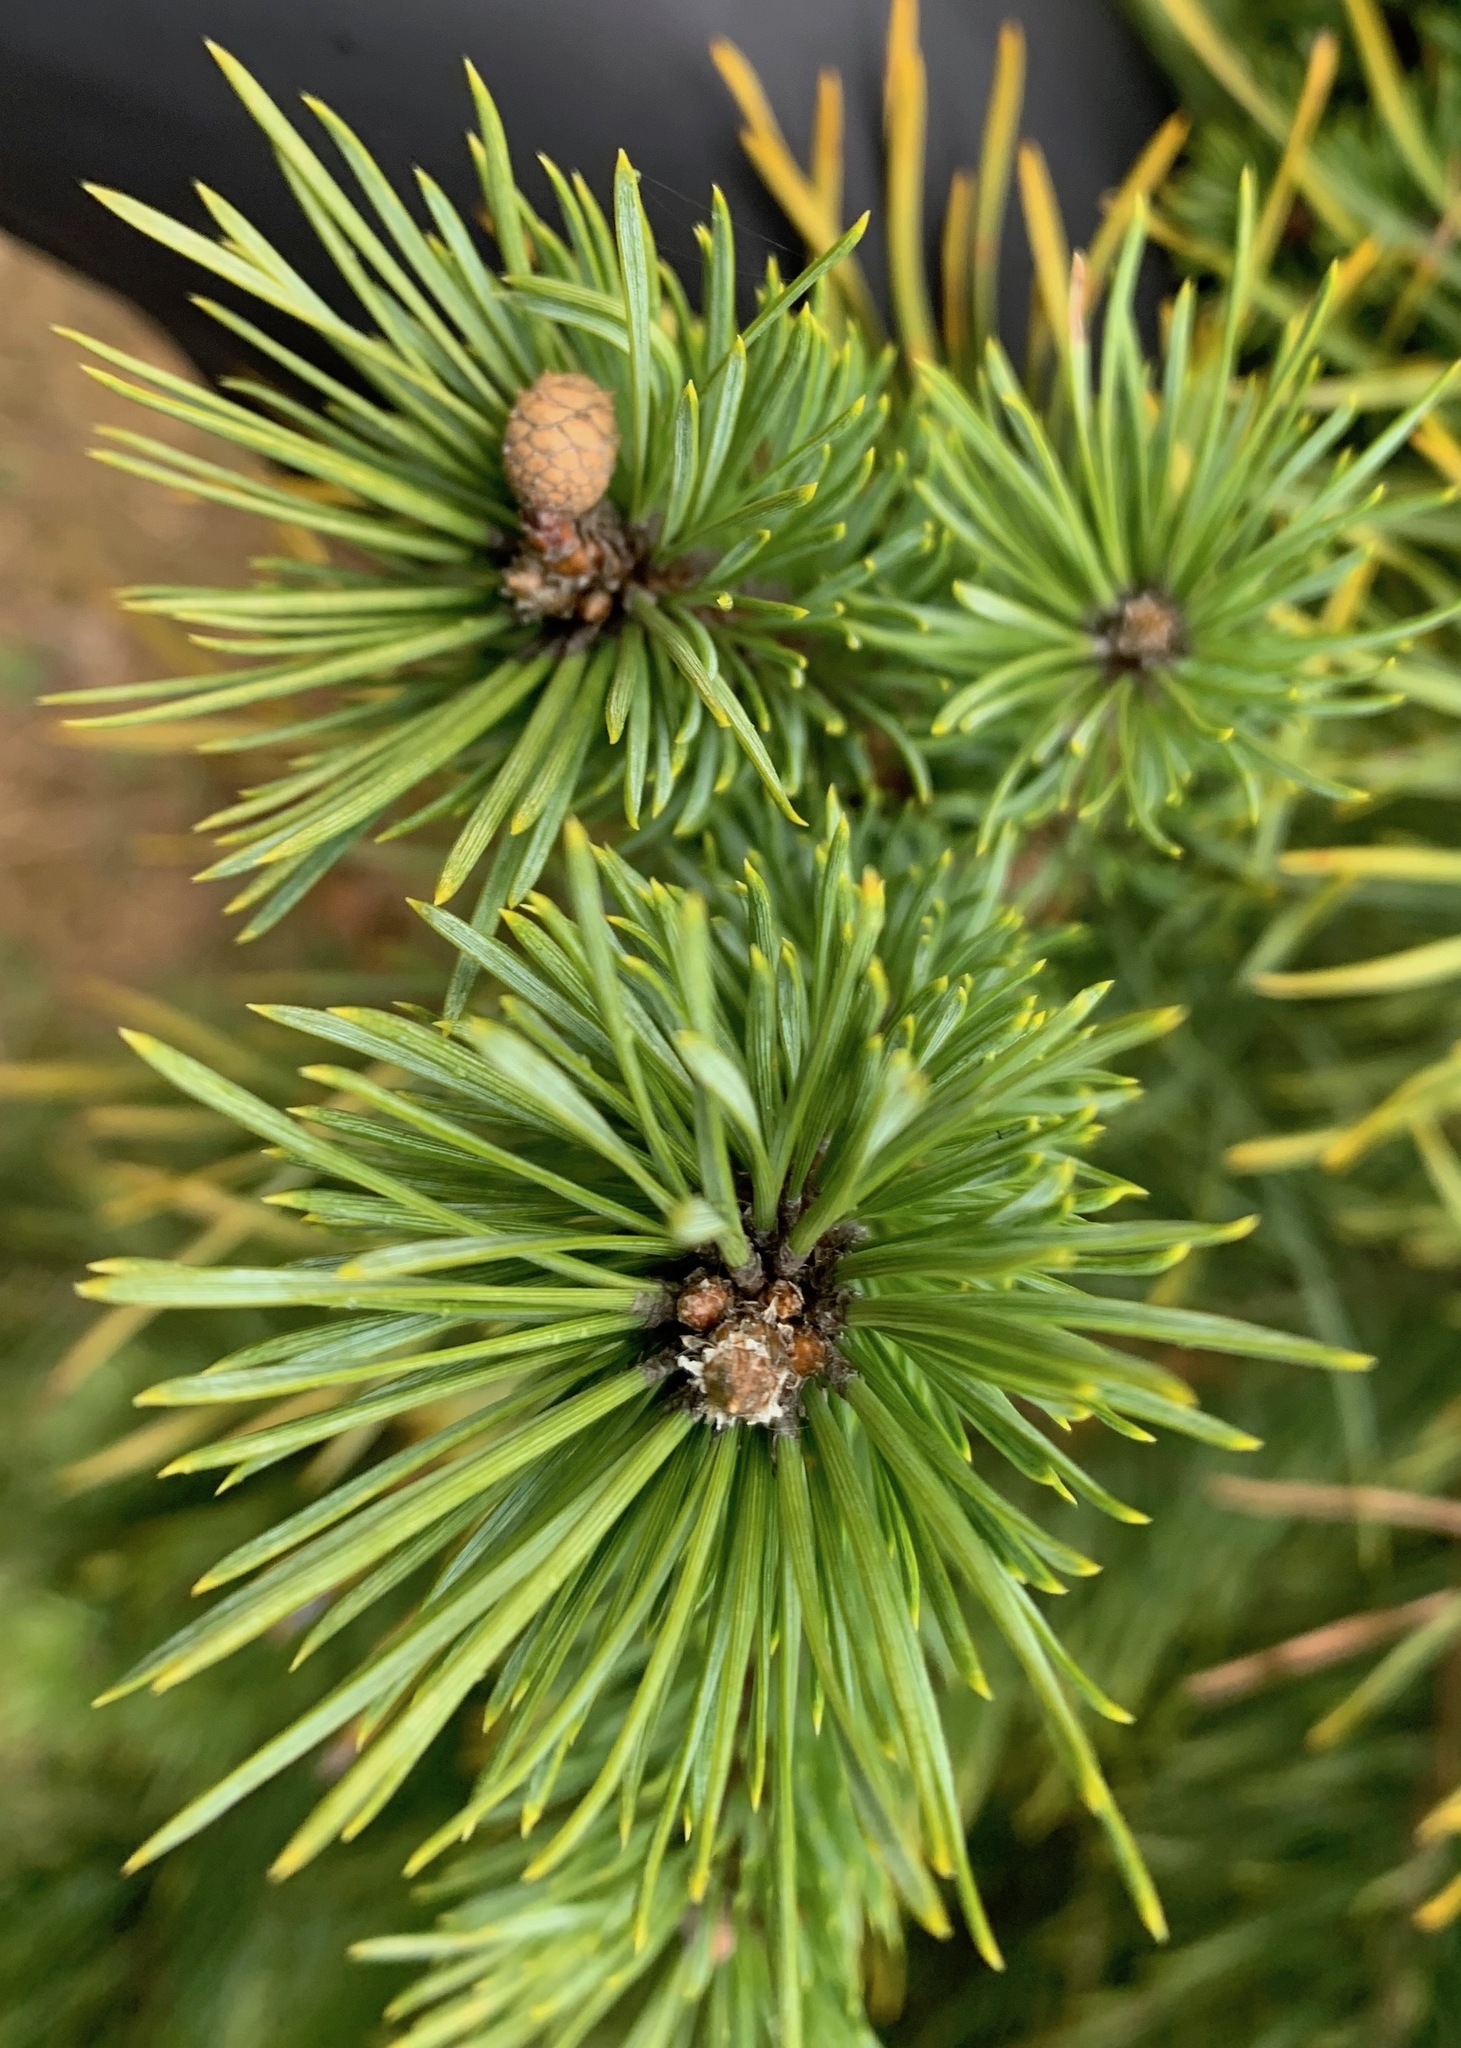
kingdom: Plantae
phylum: Tracheophyta
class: Pinopsida
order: Pinales
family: Pinaceae
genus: Pinus
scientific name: Pinus sylvestris
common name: Scots pine
